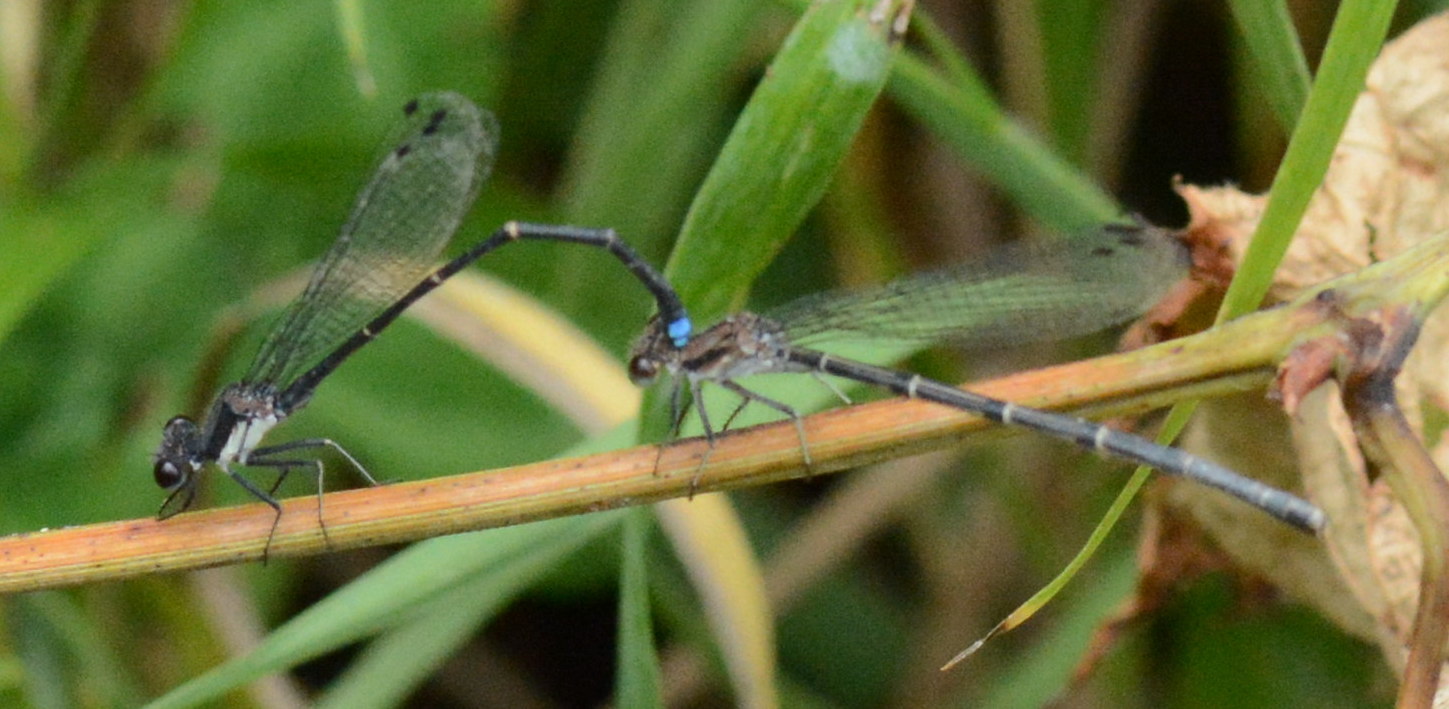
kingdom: Animalia
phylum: Arthropoda
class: Insecta
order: Odonata
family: Coenagrionidae
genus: Argia
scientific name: Argia tibialis
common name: Blue-tipped dancer
